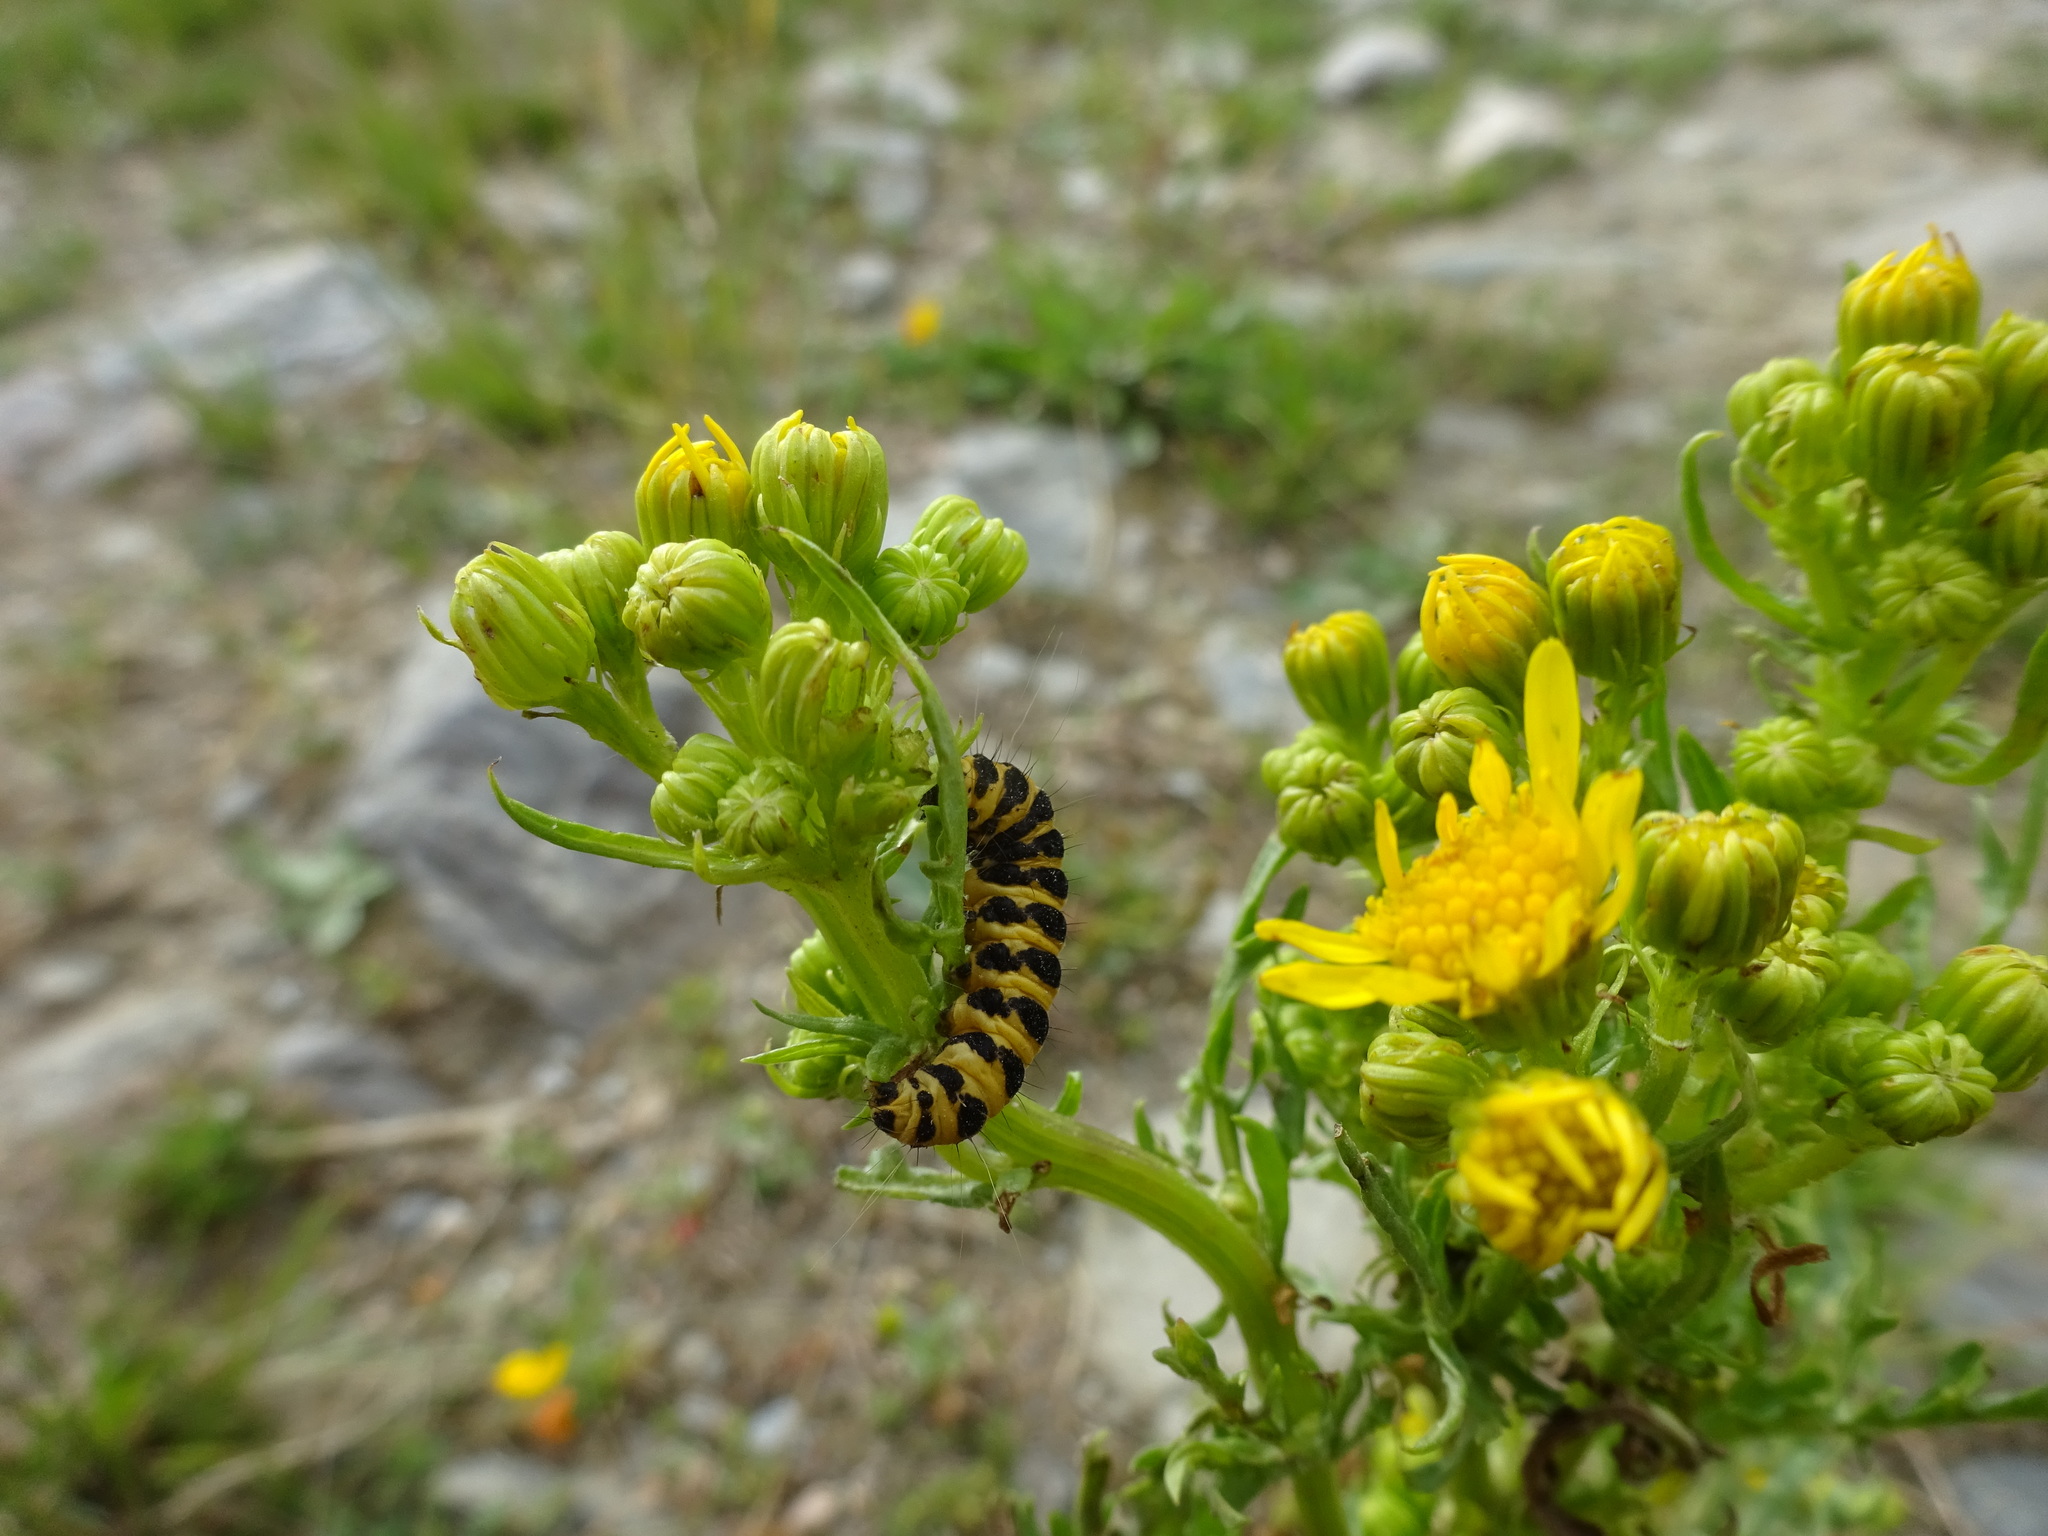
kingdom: Animalia
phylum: Arthropoda
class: Insecta
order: Lepidoptera
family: Erebidae
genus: Tyria
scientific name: Tyria jacobaeae
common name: Cinnabar
